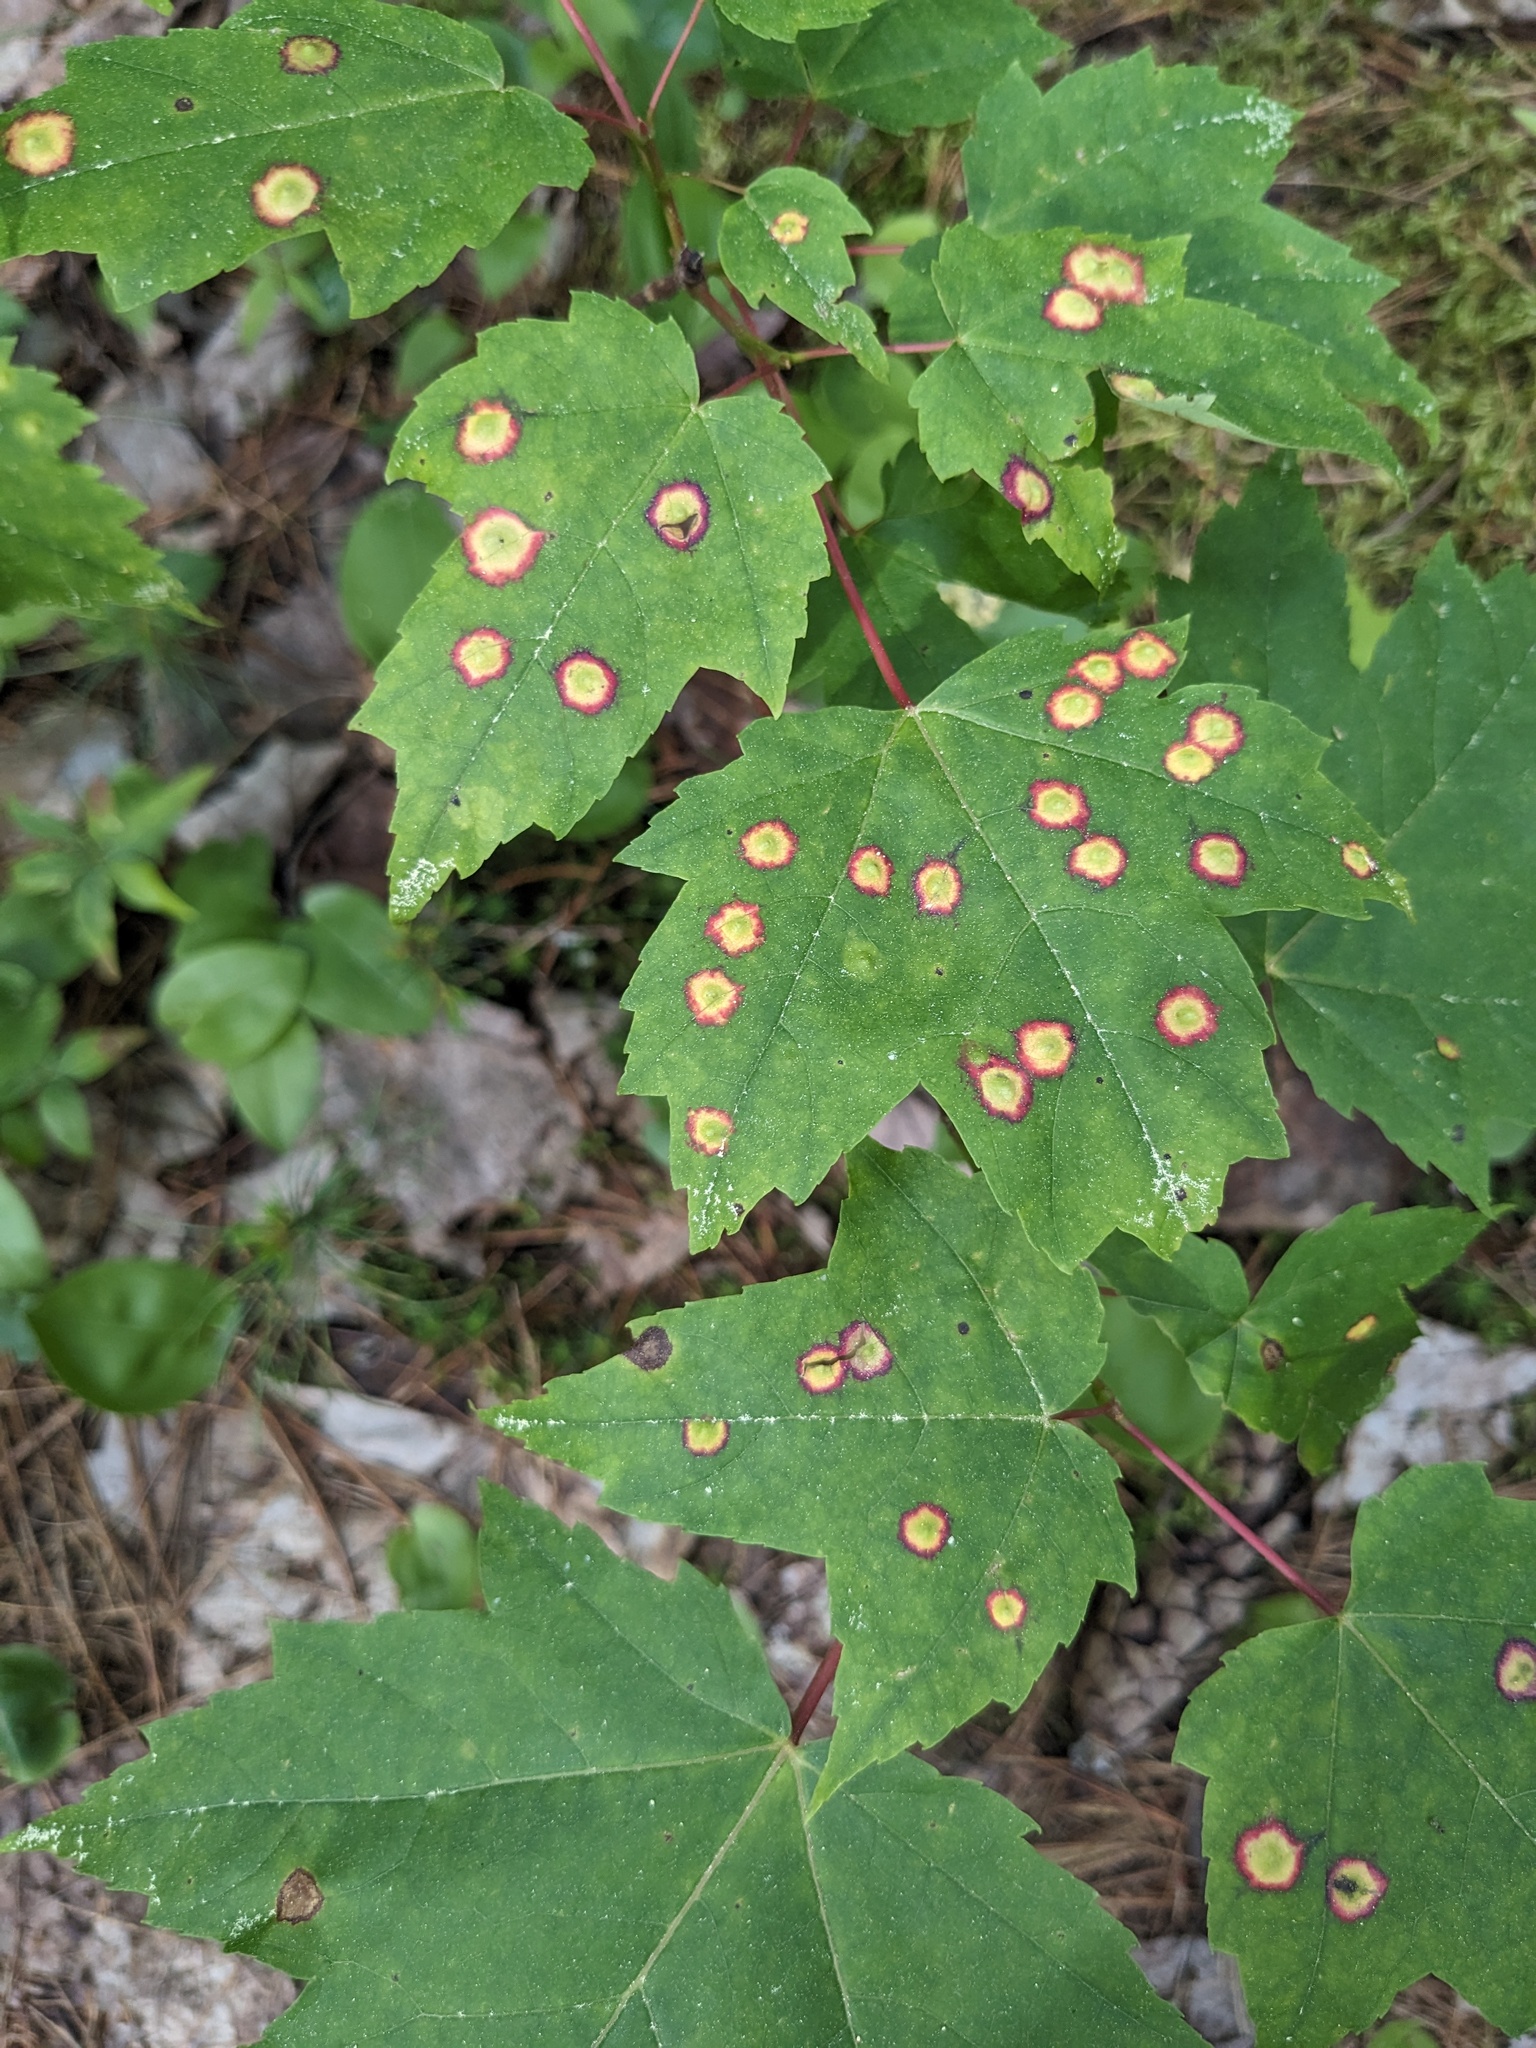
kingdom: Animalia
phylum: Arthropoda
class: Insecta
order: Diptera
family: Cecidomyiidae
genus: Acericecis
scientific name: Acericecis ocellaris
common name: Ocellate gall midge
